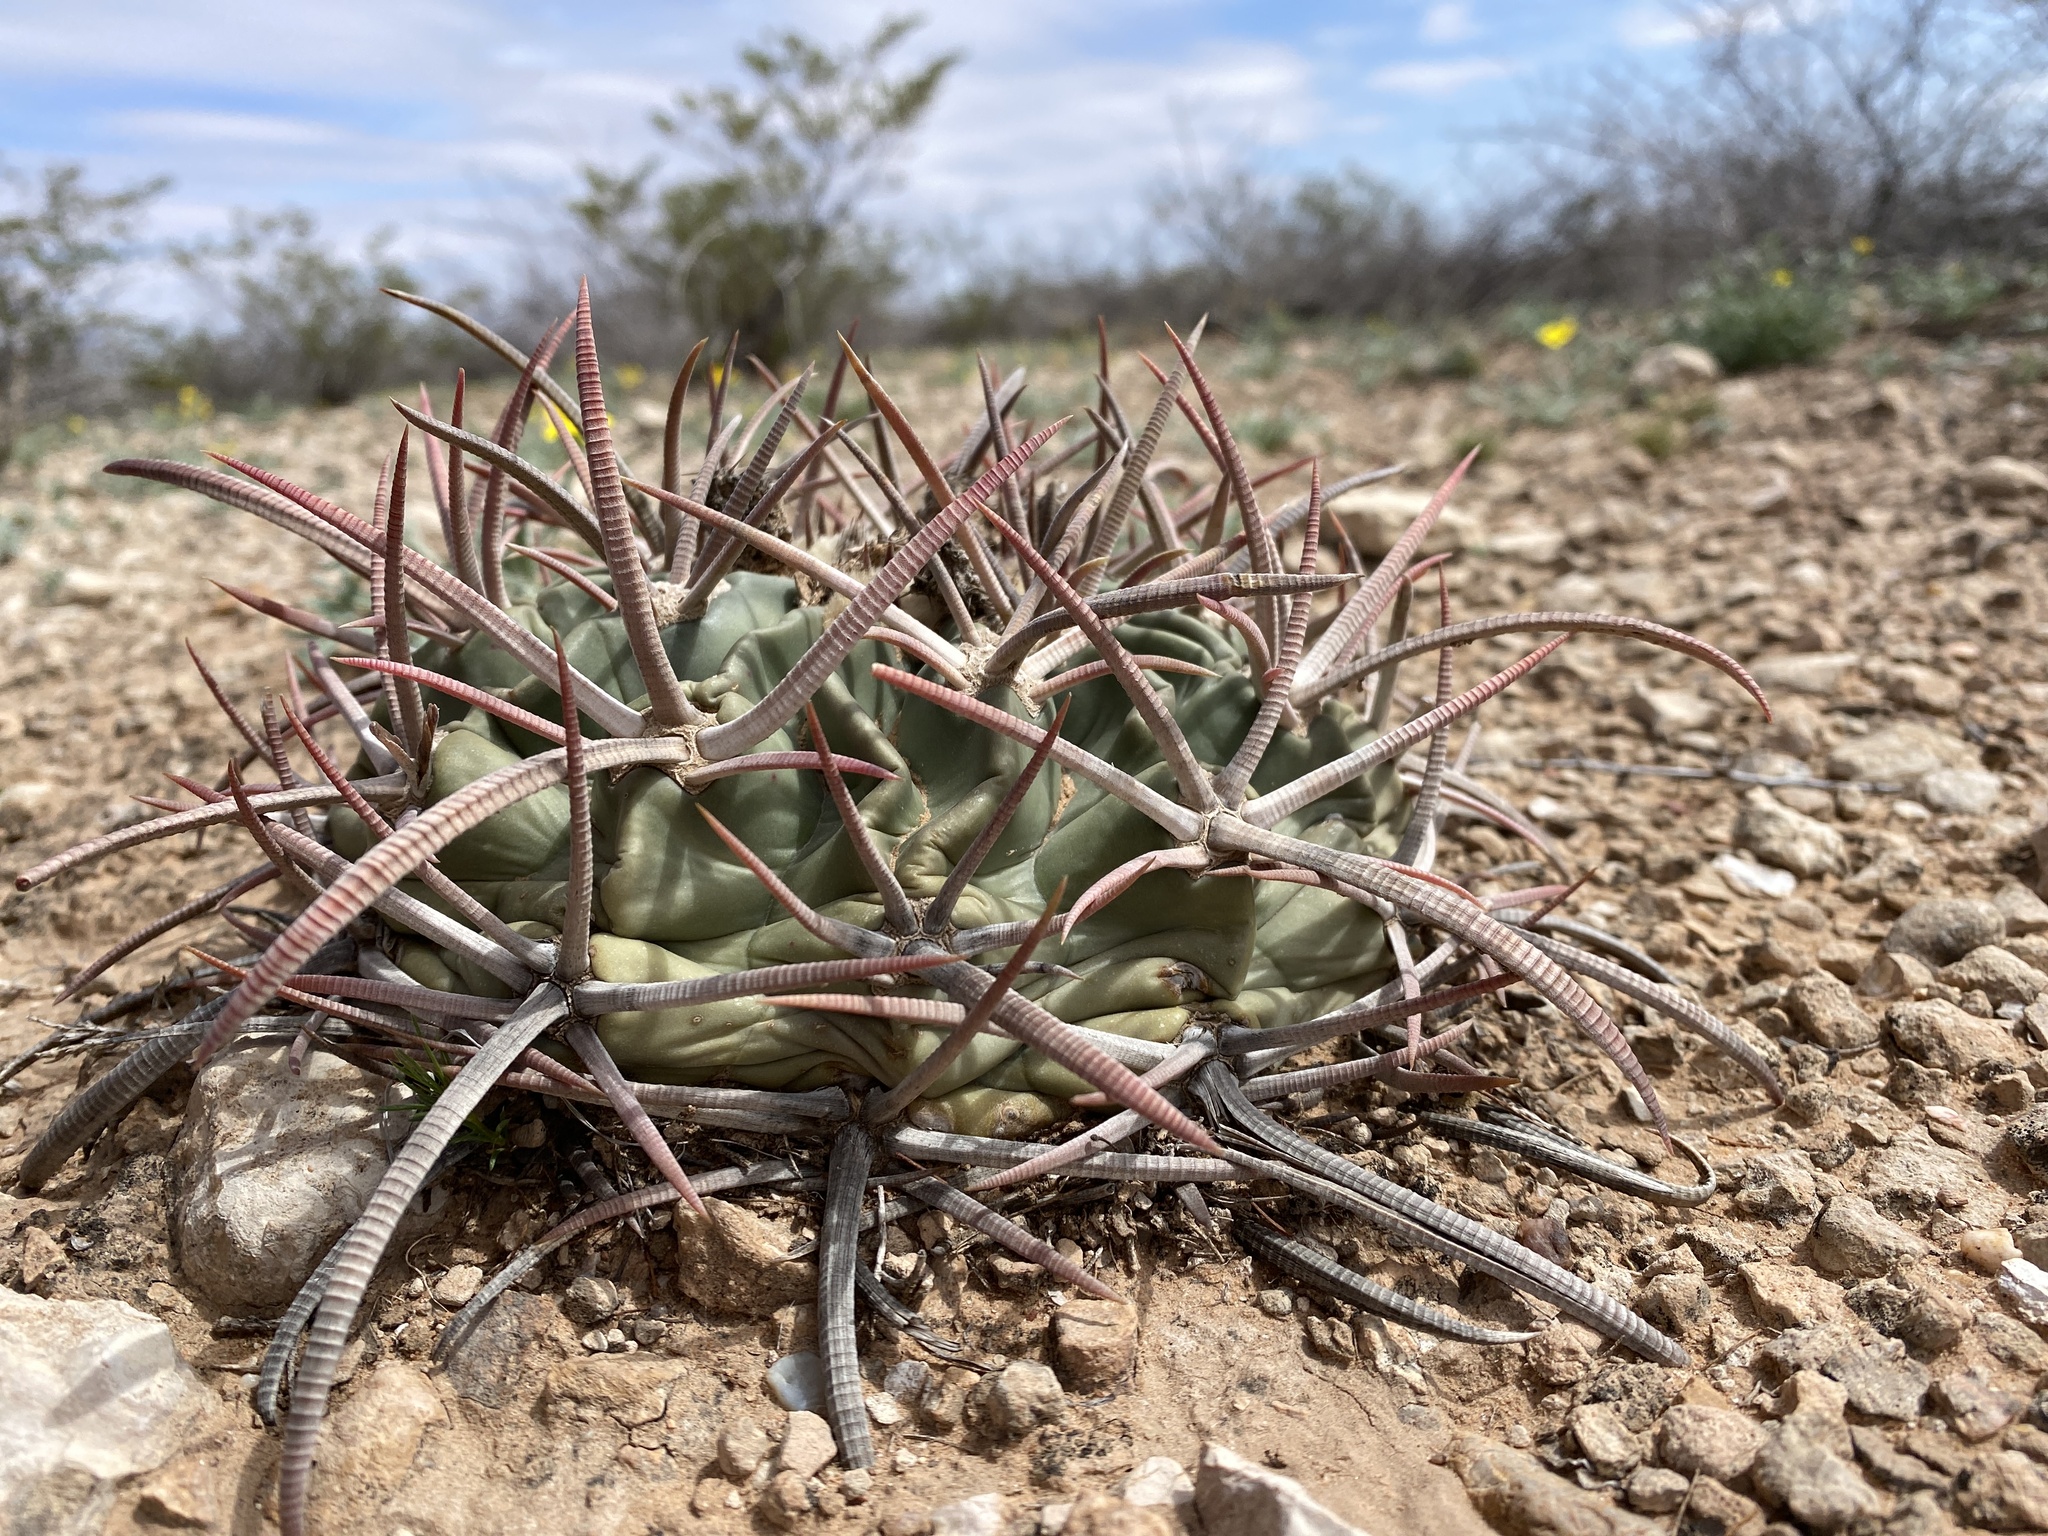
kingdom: Plantae
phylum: Tracheophyta
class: Magnoliopsida
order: Caryophyllales
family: Cactaceae
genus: Echinocactus
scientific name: Echinocactus texensis
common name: Devil's pincushion
